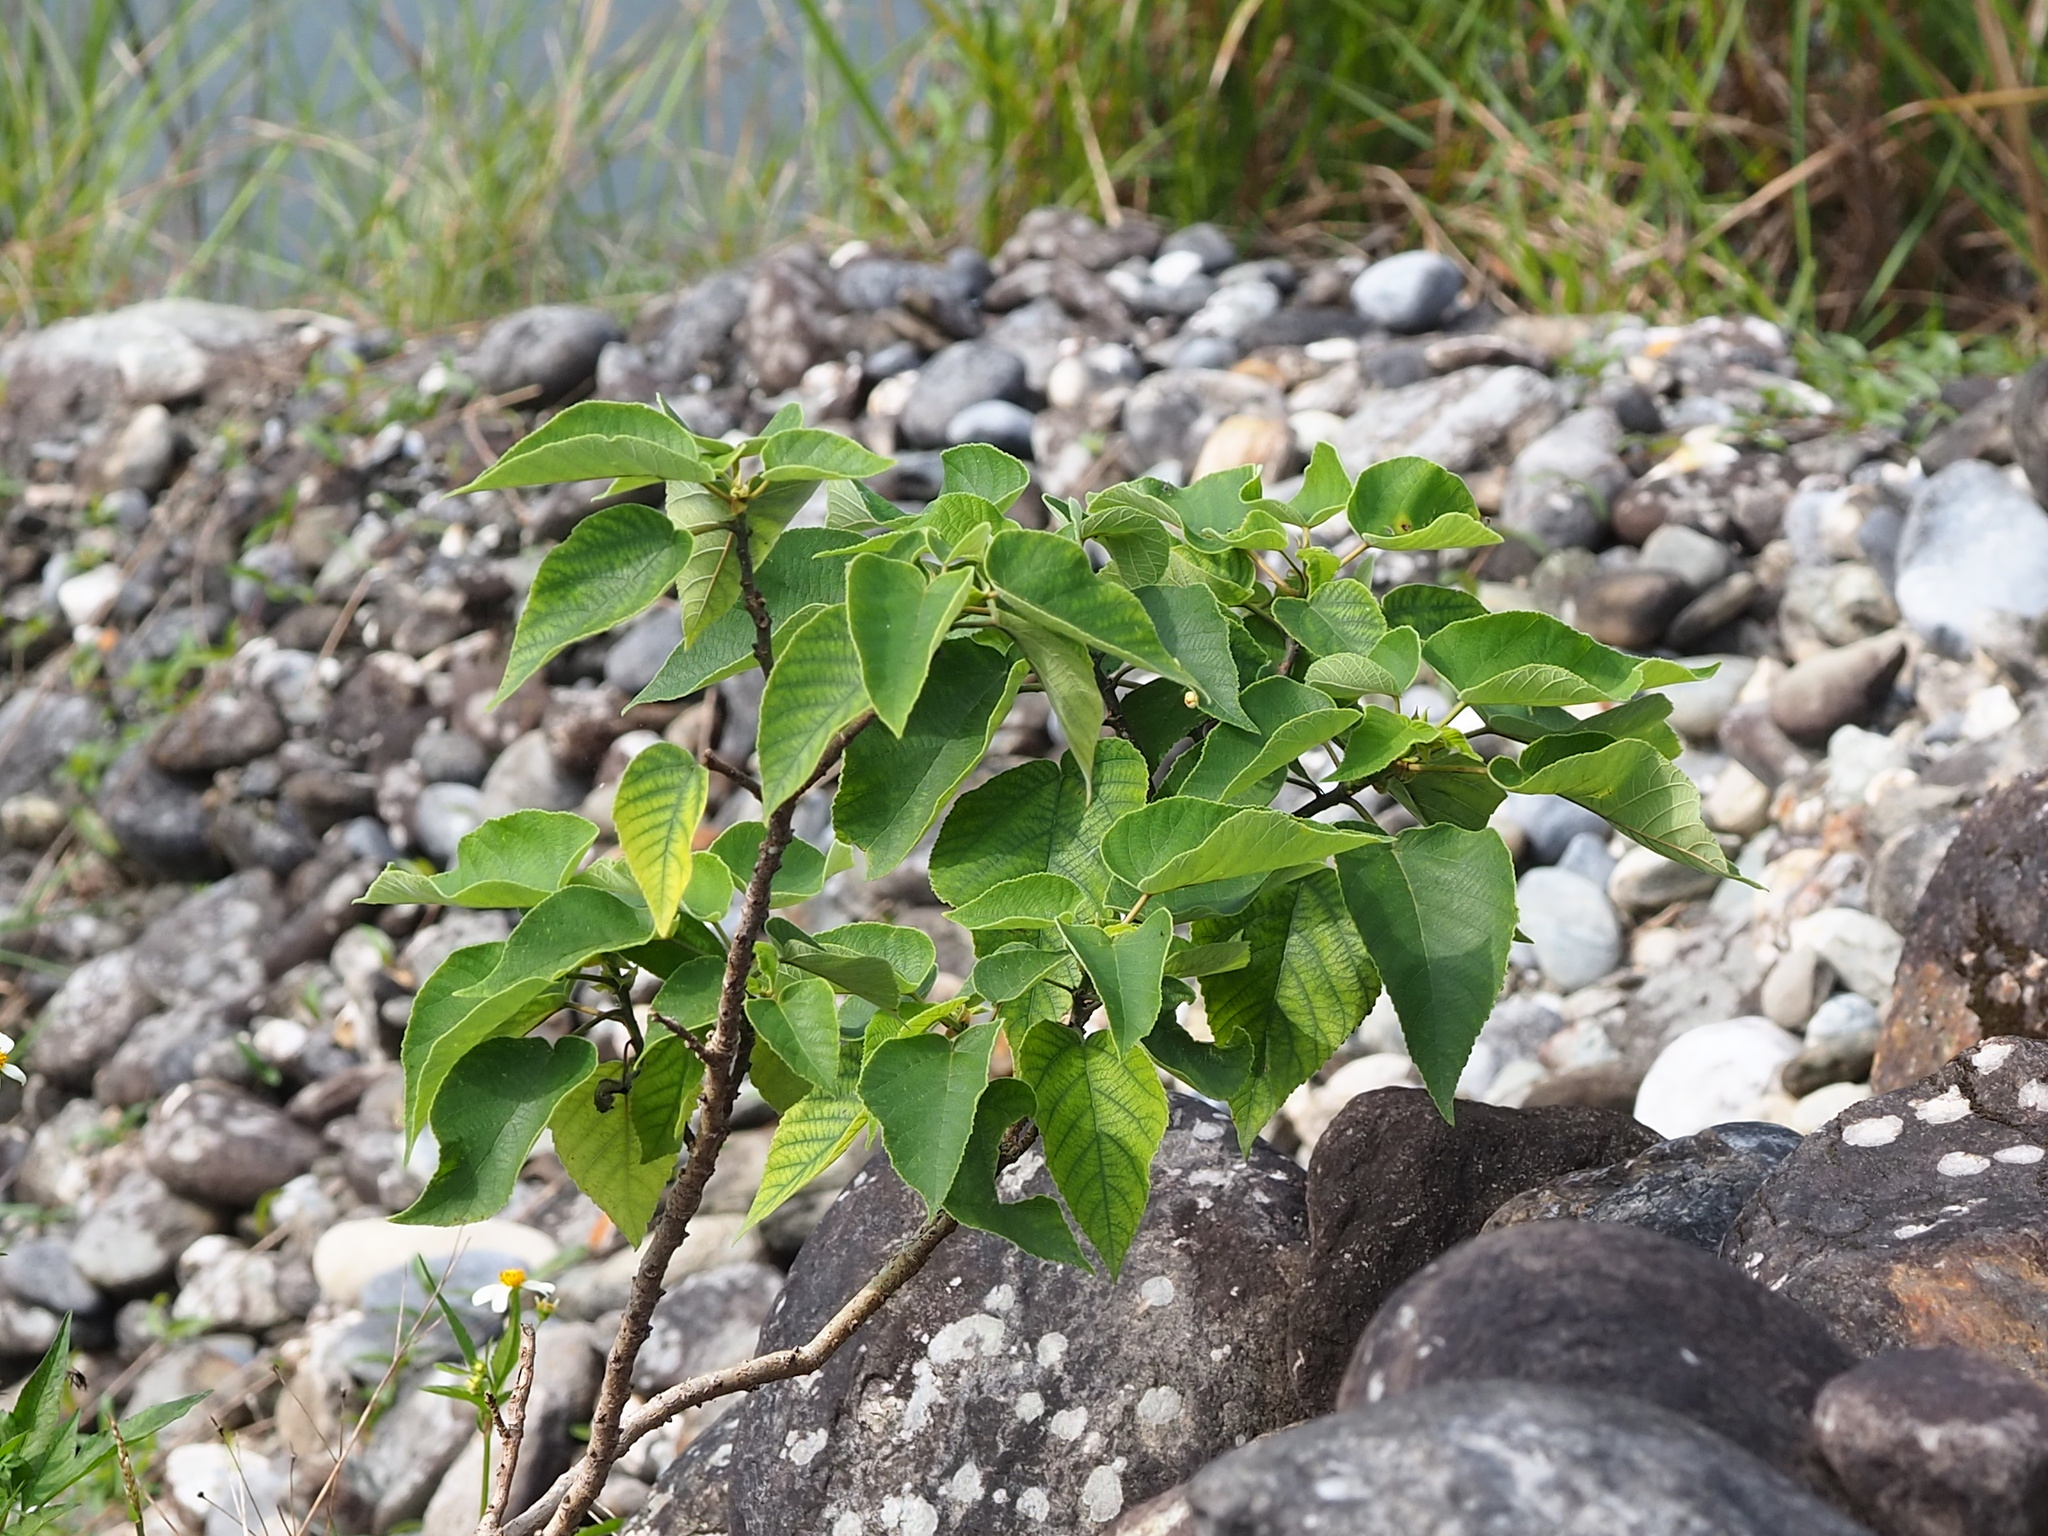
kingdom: Plantae
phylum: Tracheophyta
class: Magnoliopsida
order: Rosales
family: Moraceae
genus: Broussonetia
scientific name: Broussonetia papyrifera
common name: Paper mulberry
